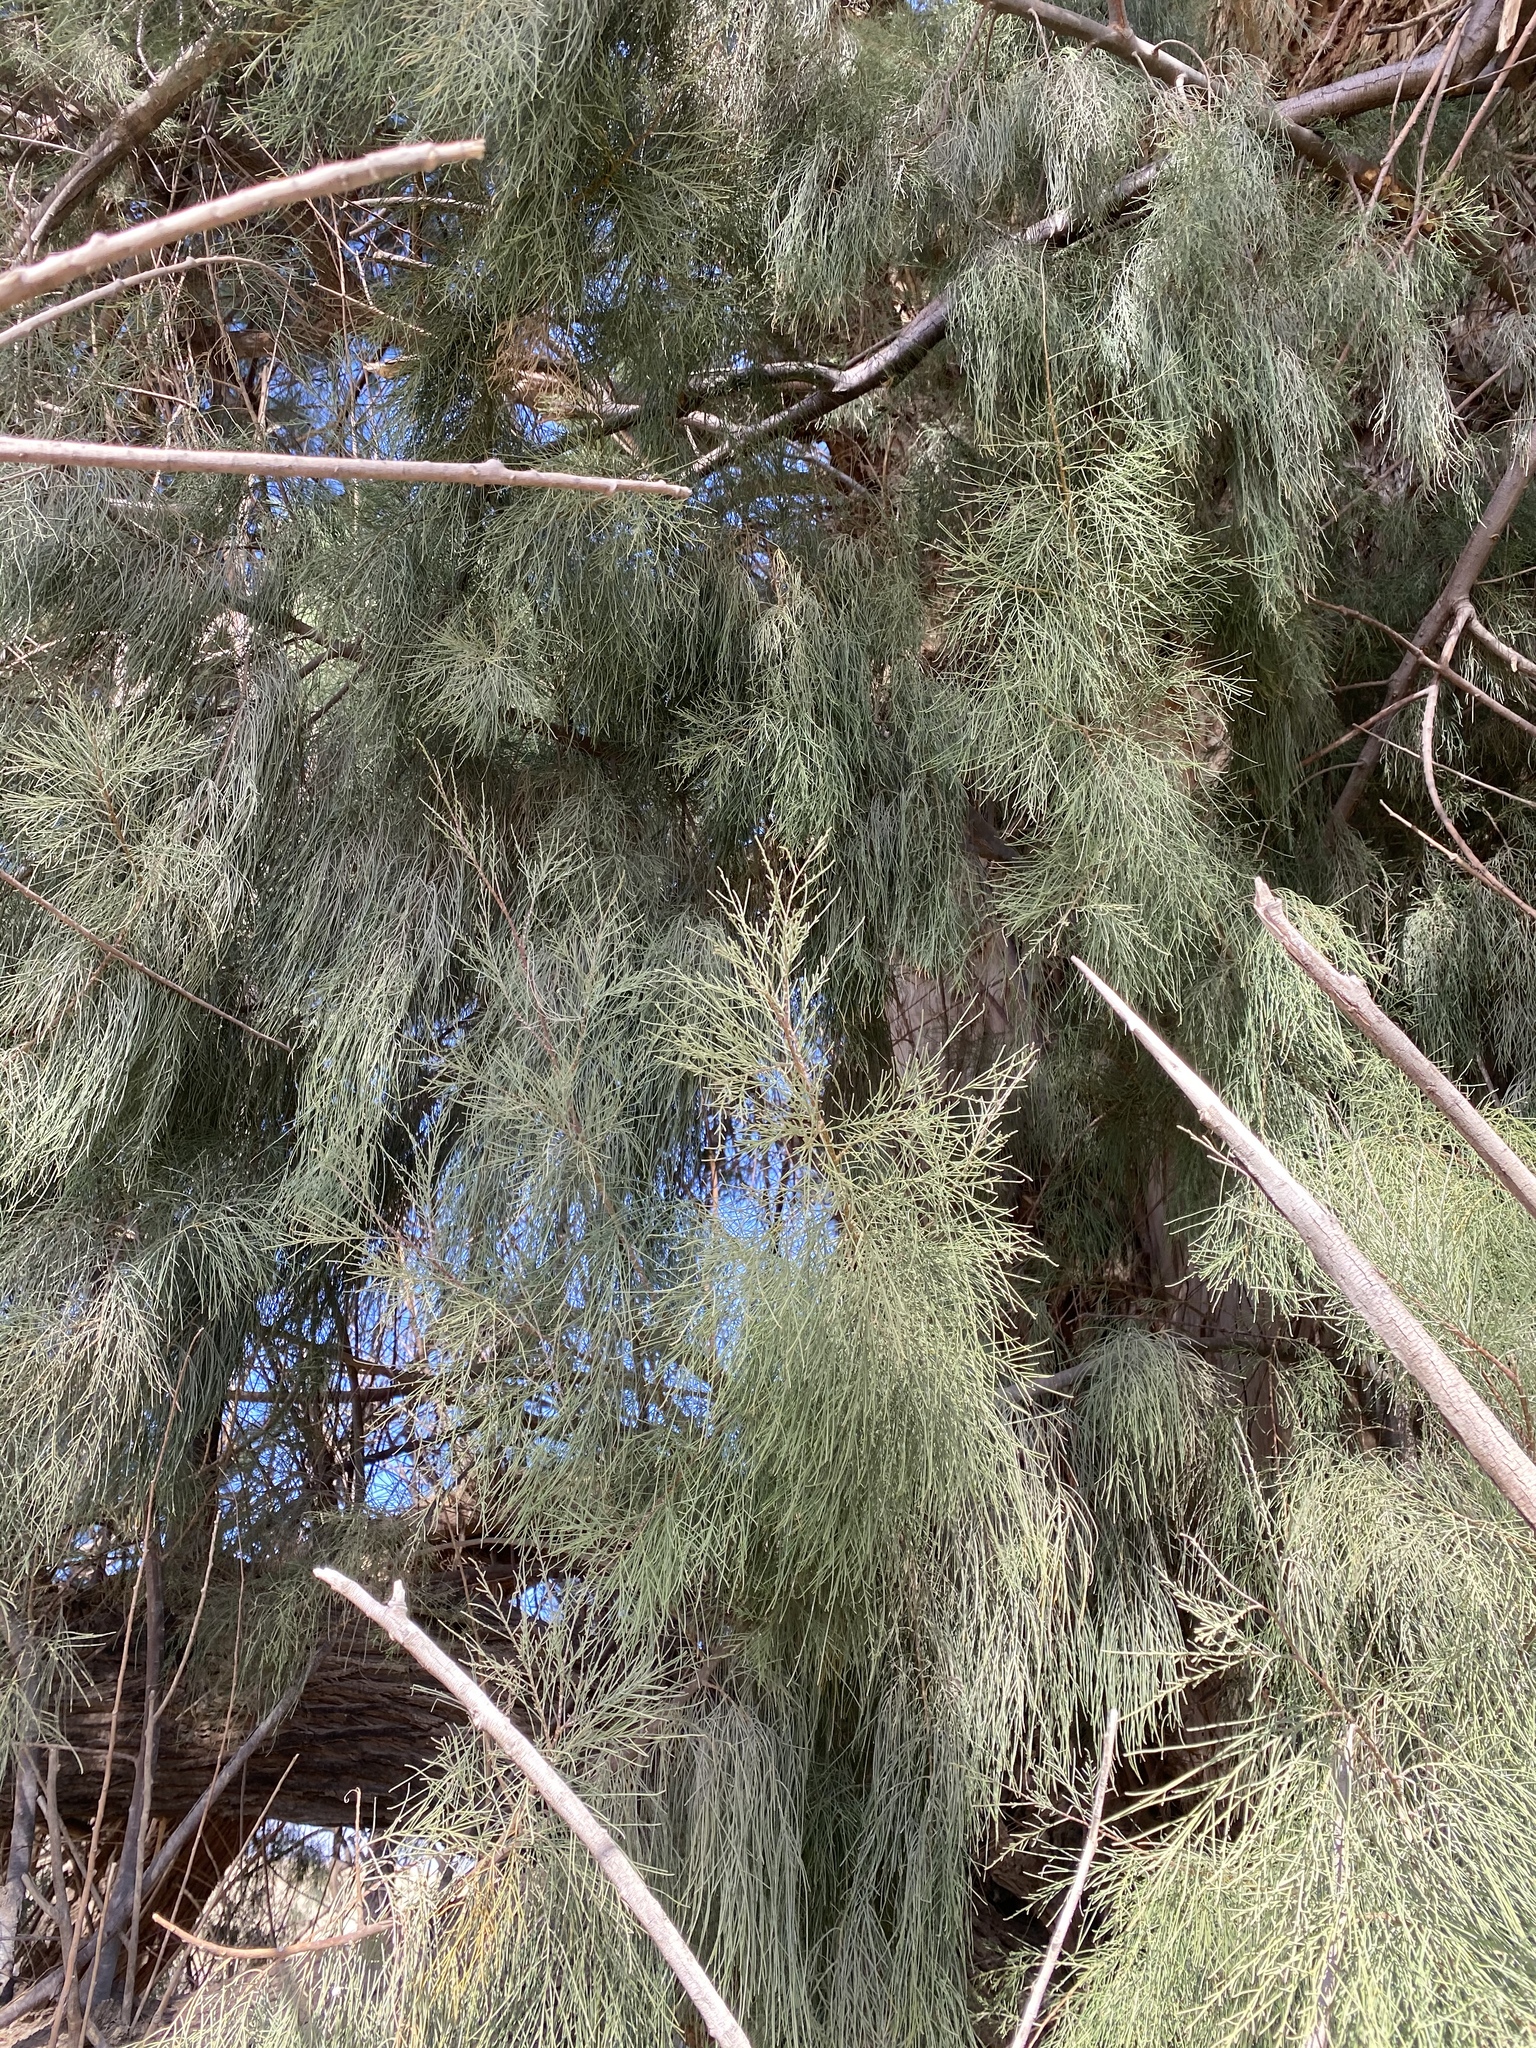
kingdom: Plantae
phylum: Tracheophyta
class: Magnoliopsida
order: Caryophyllales
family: Tamaricaceae
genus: Tamarix
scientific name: Tamarix aphylla
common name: Athel tamarisk
